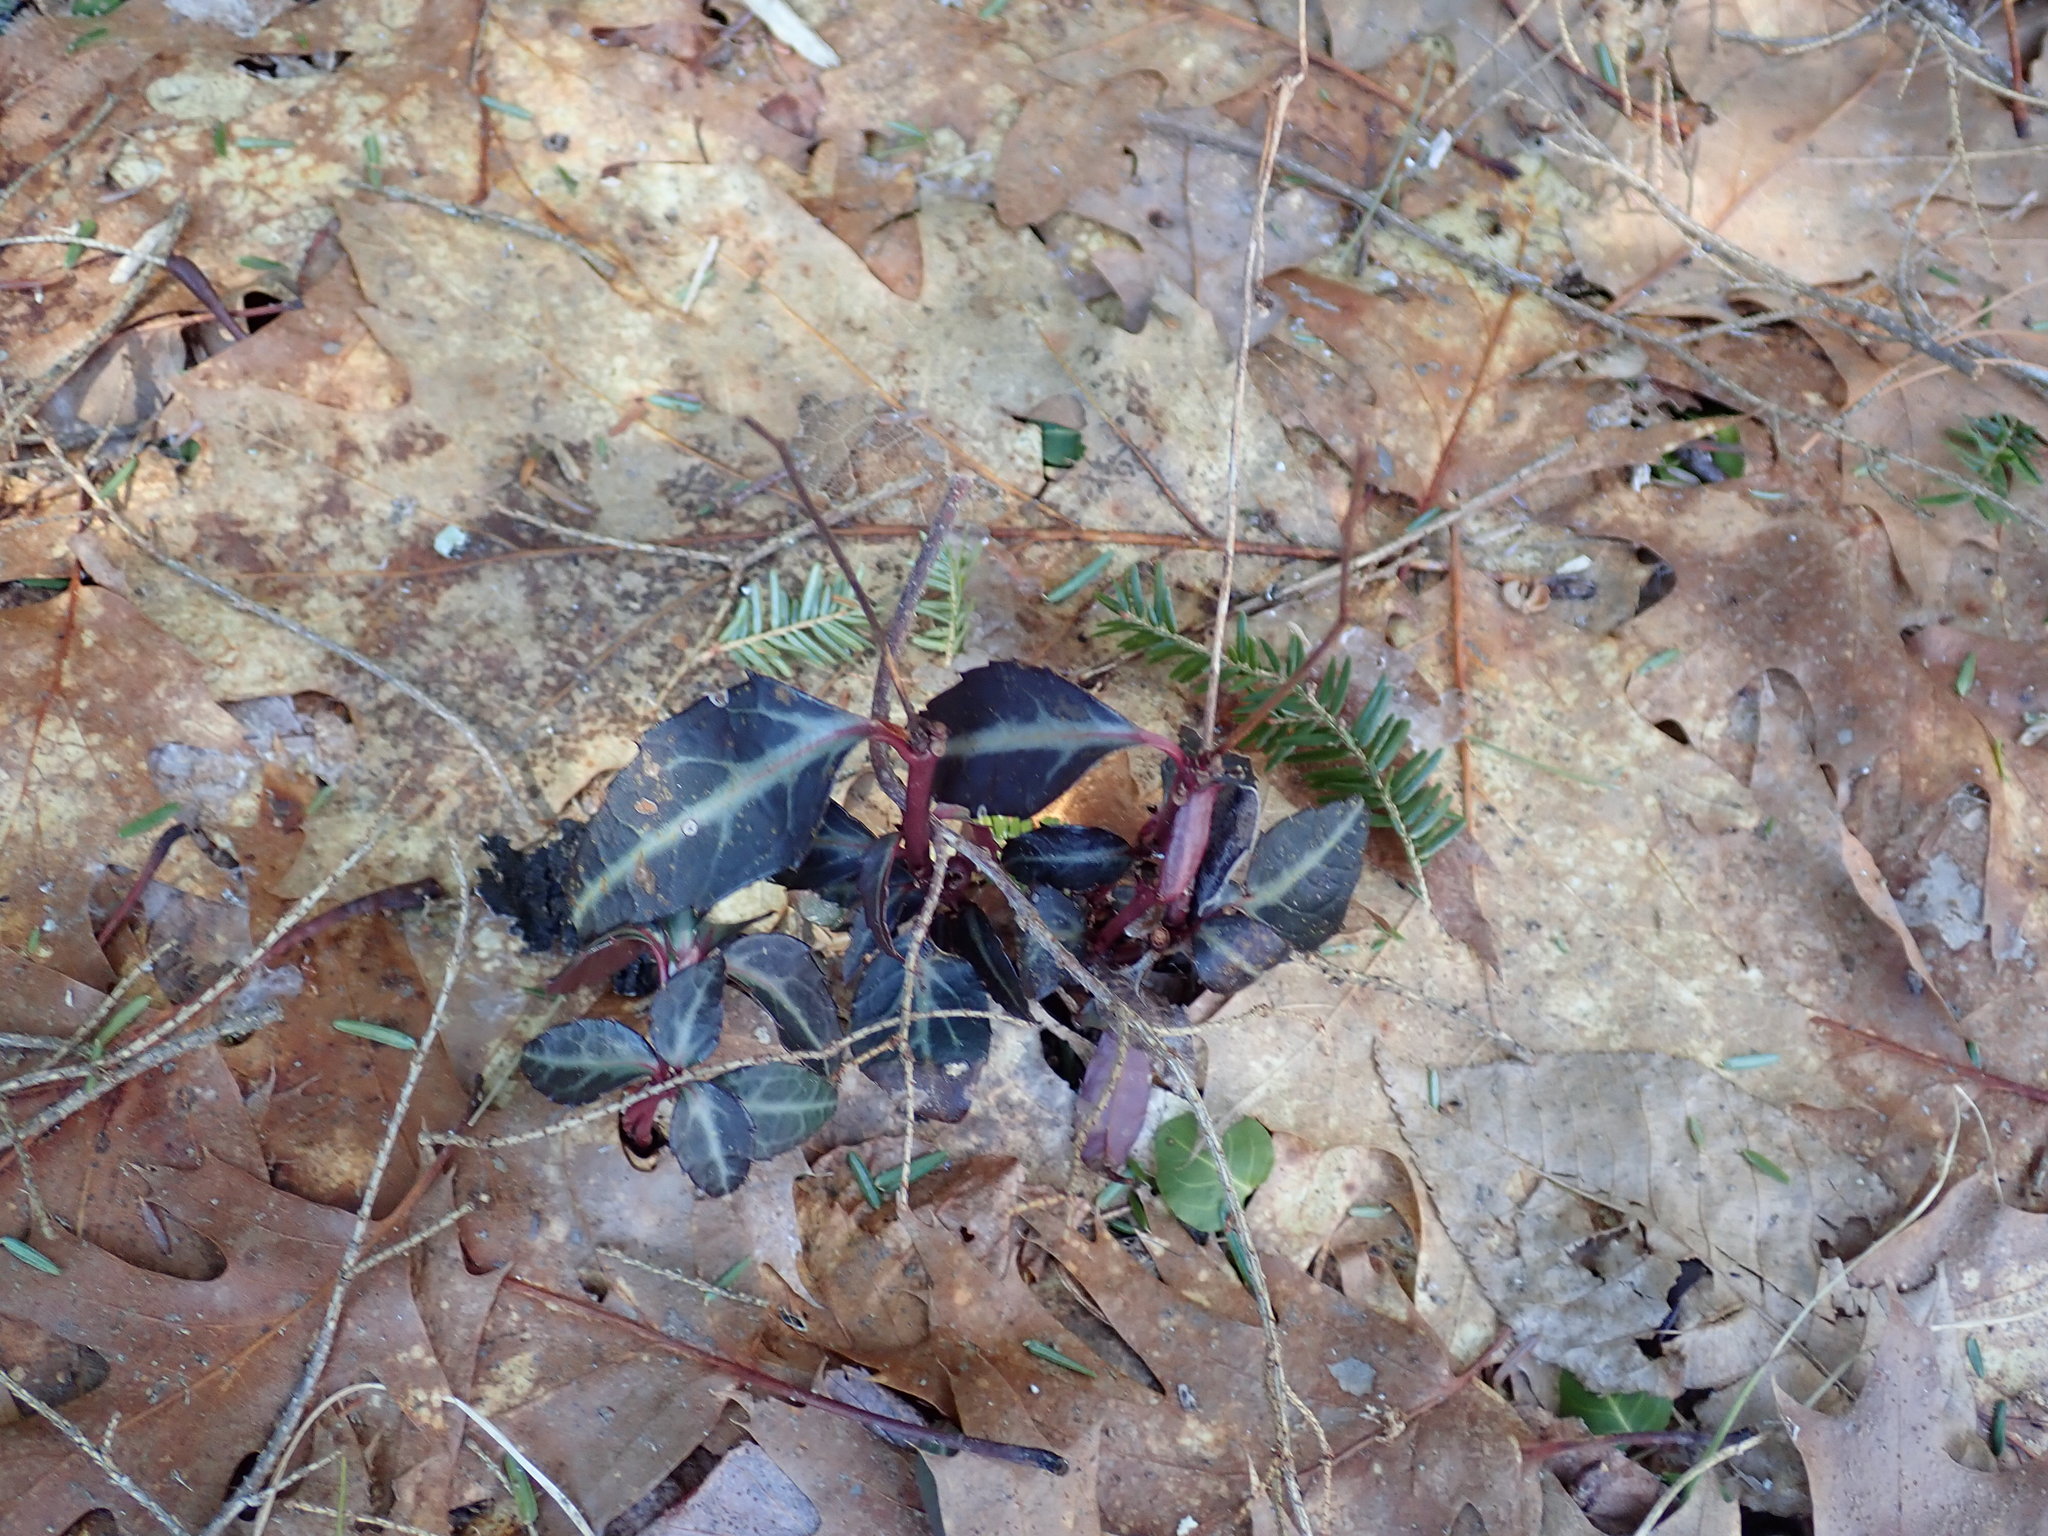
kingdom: Plantae
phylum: Tracheophyta
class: Magnoliopsida
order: Ericales
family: Ericaceae
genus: Chimaphila
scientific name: Chimaphila maculata
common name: Spotted pipsissewa
